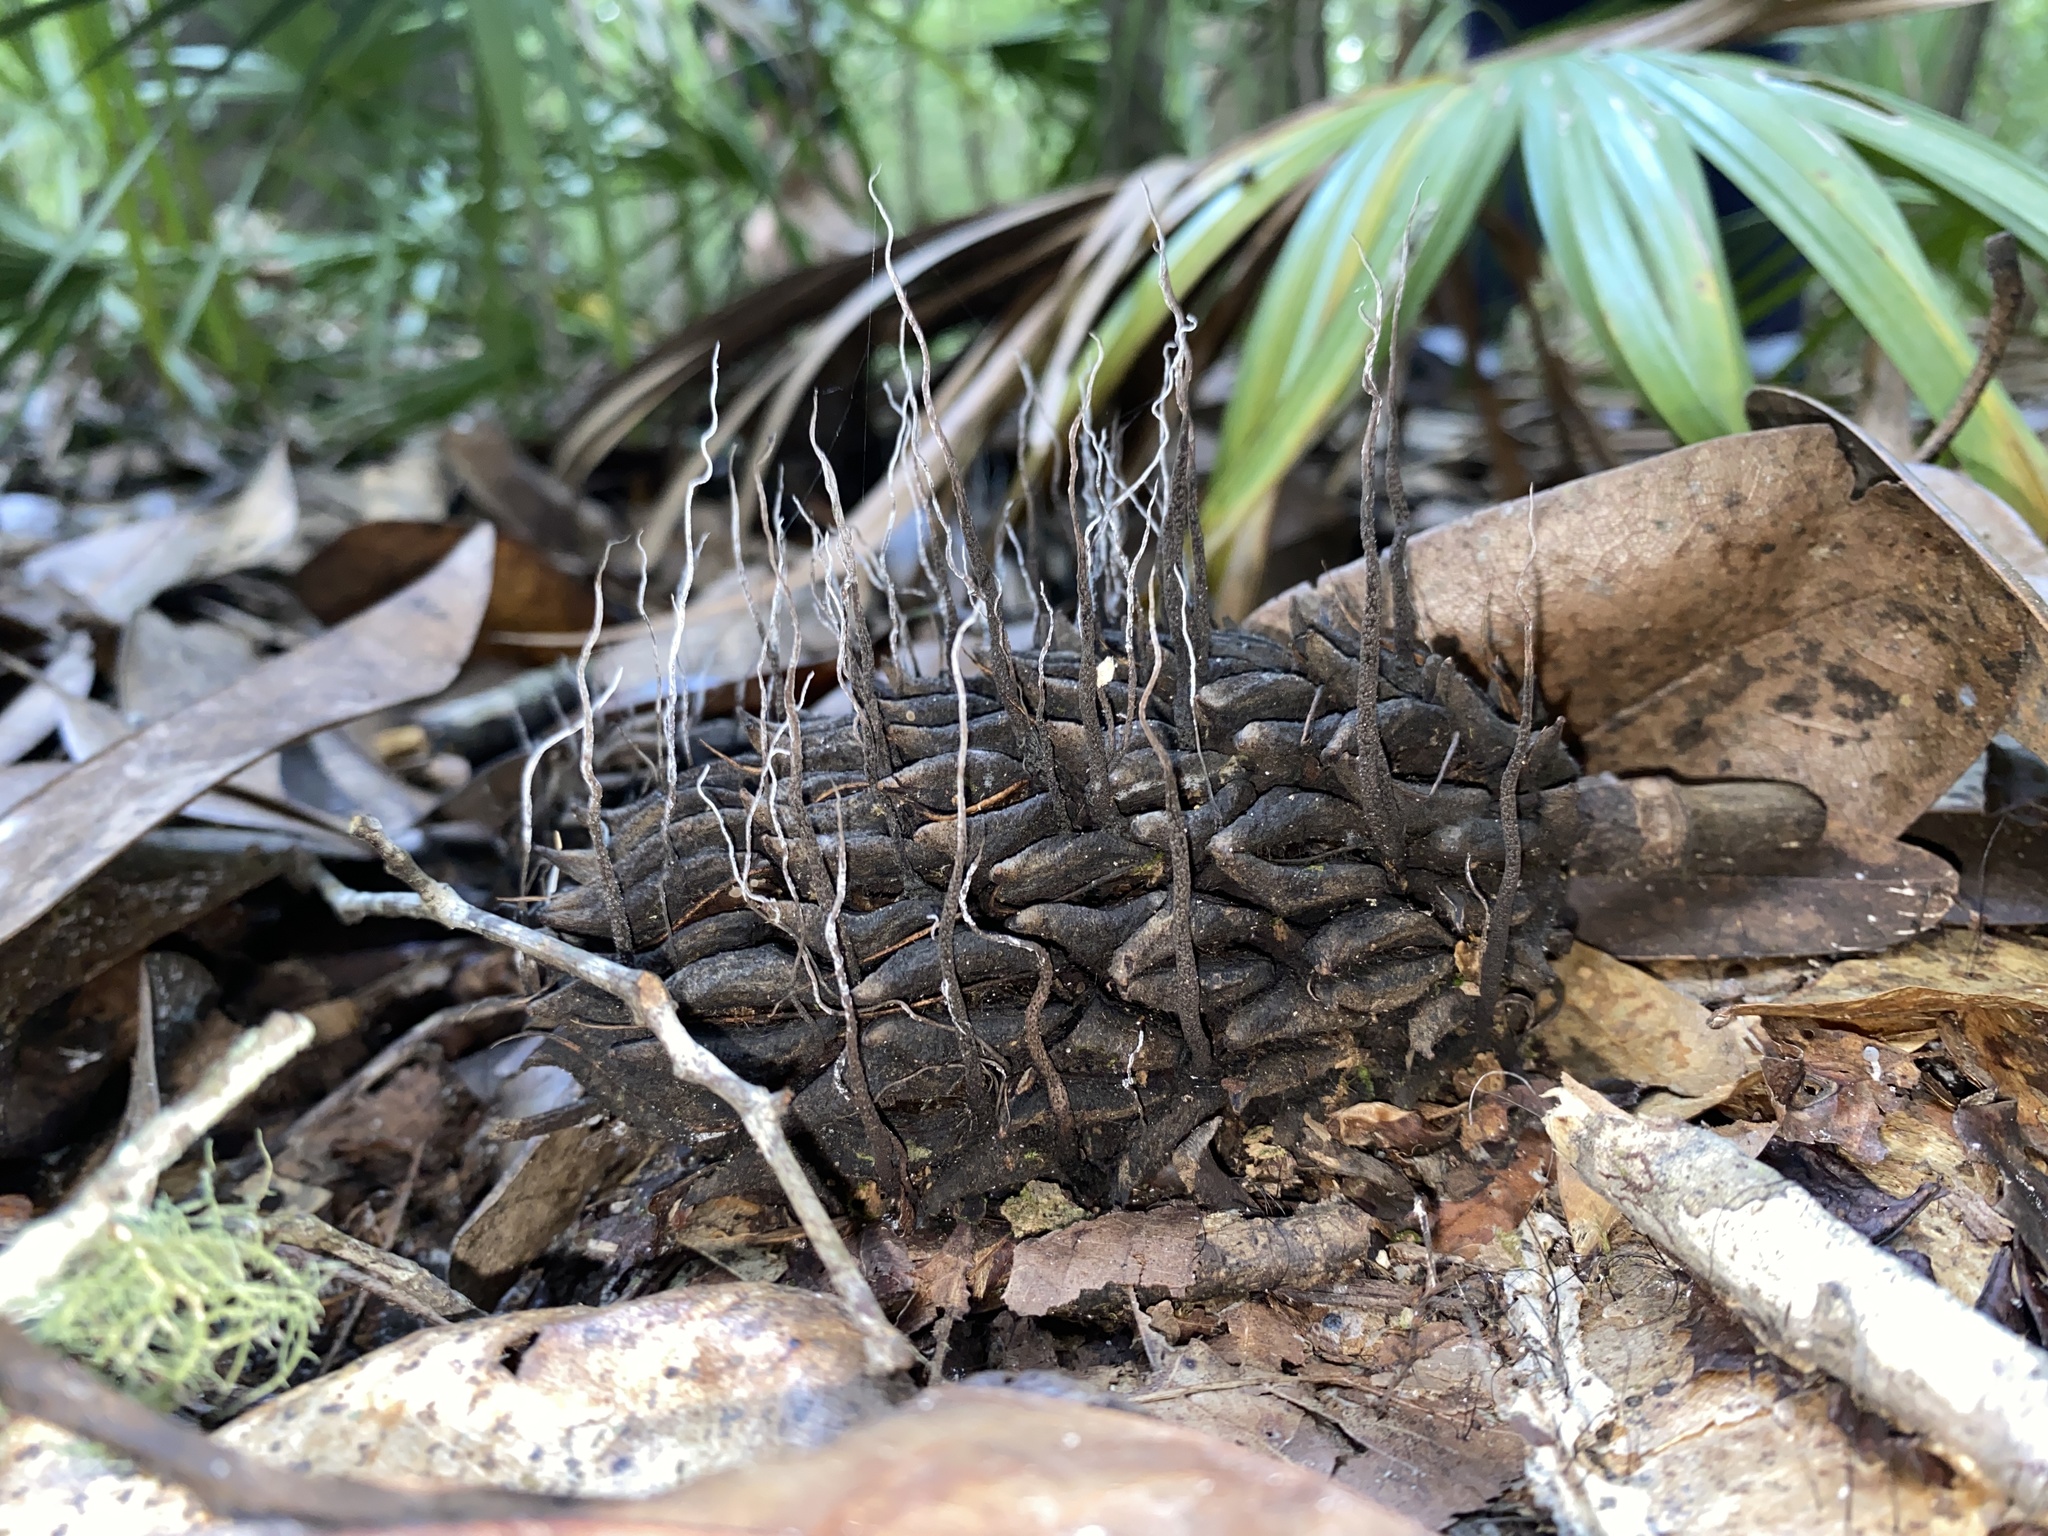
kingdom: Fungi
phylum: Ascomycota
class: Sordariomycetes
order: Xylariales
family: Xylariaceae
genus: Xylaria
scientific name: Xylaria magnoliae
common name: Magnolia-cone xylaria
